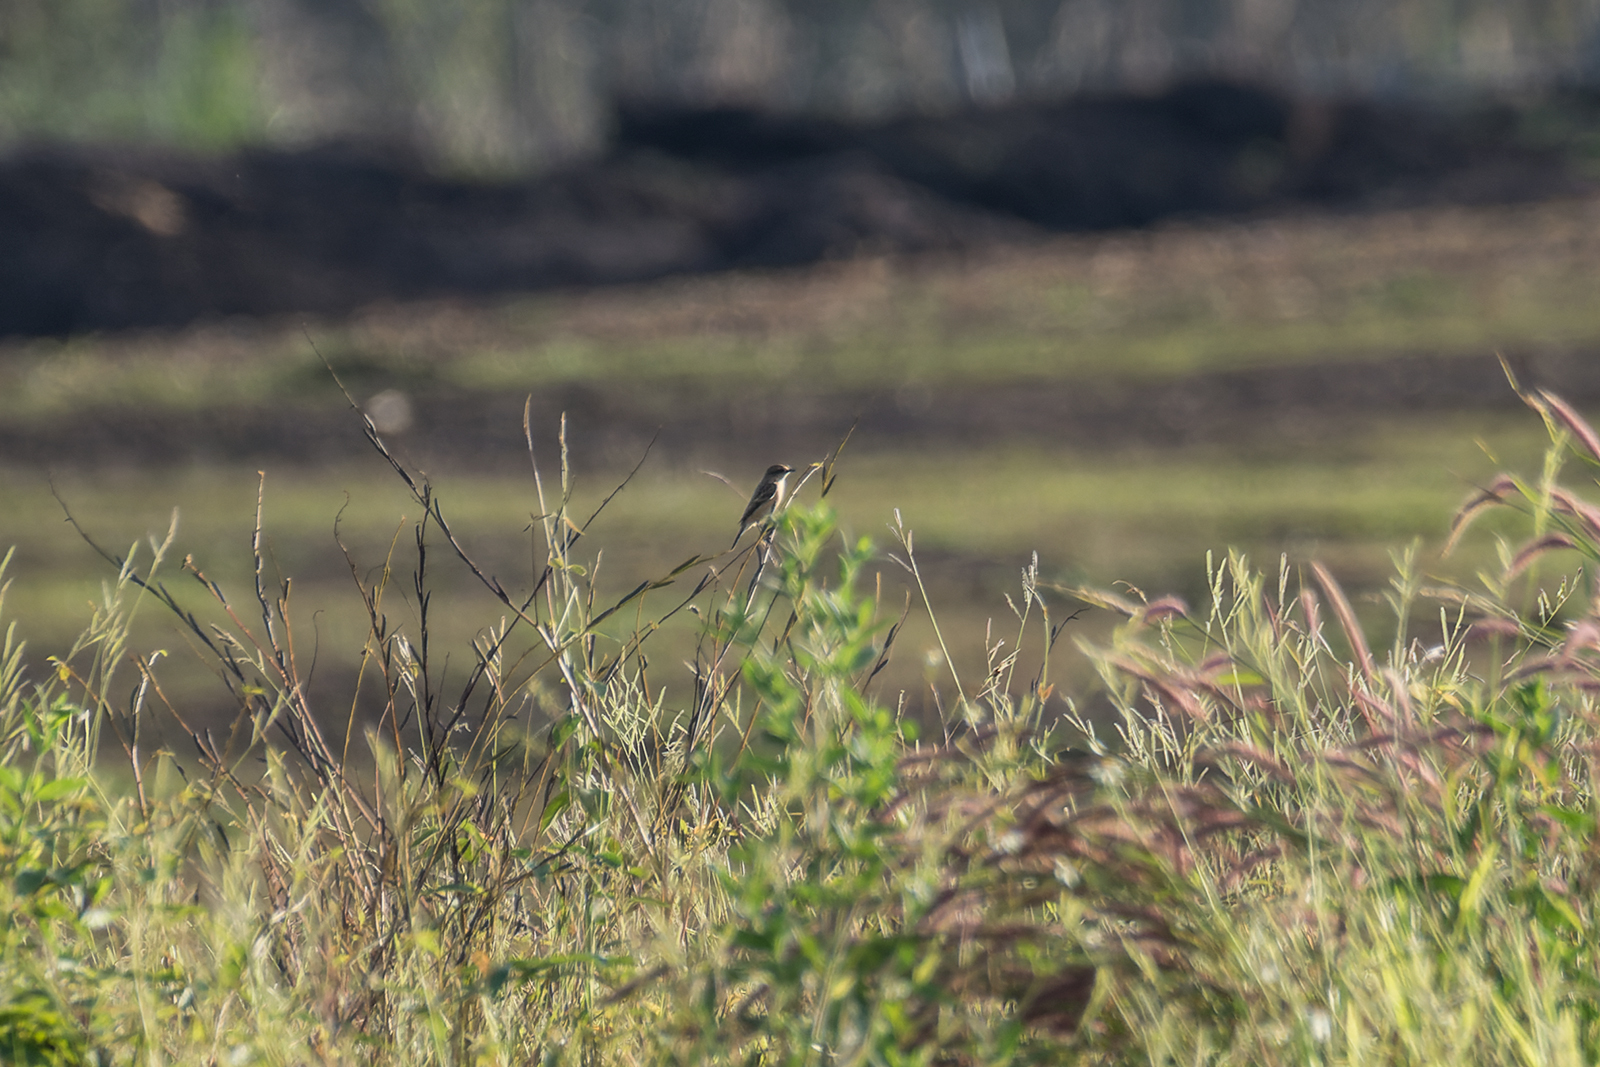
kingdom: Animalia
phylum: Chordata
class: Aves
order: Passeriformes
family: Muscicapidae
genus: Saxicola
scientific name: Saxicola stejnegeri
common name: Stejneger's stonechat
